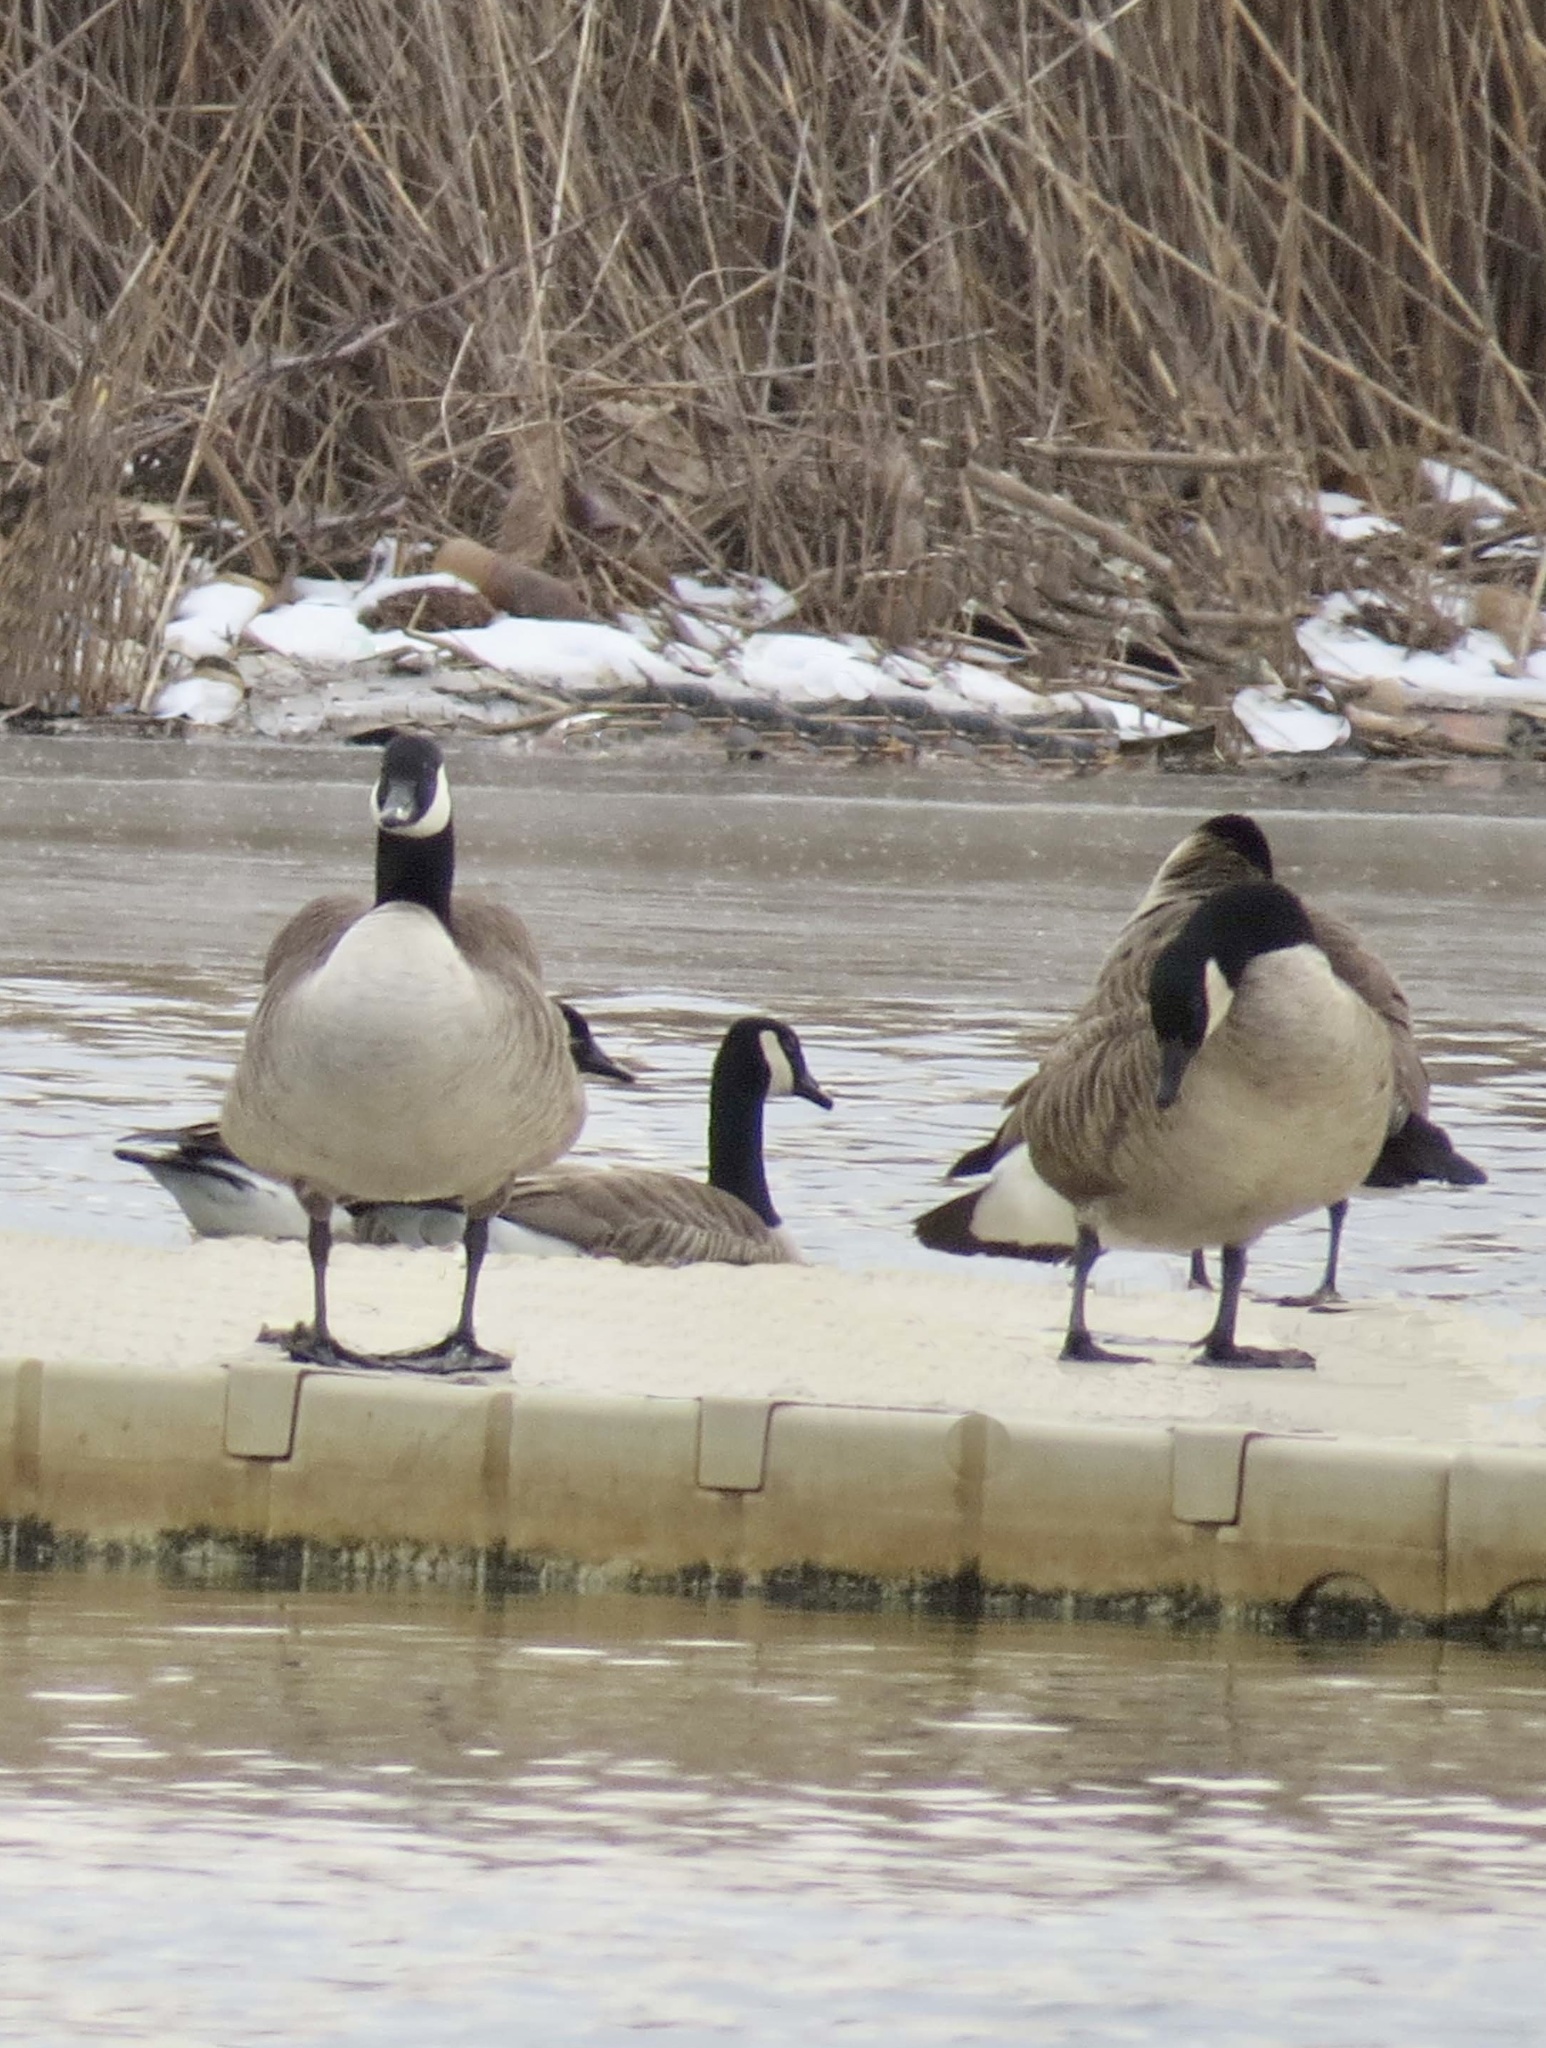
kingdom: Animalia
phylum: Chordata
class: Aves
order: Anseriformes
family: Anatidae
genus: Branta
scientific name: Branta canadensis
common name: Canada goose
